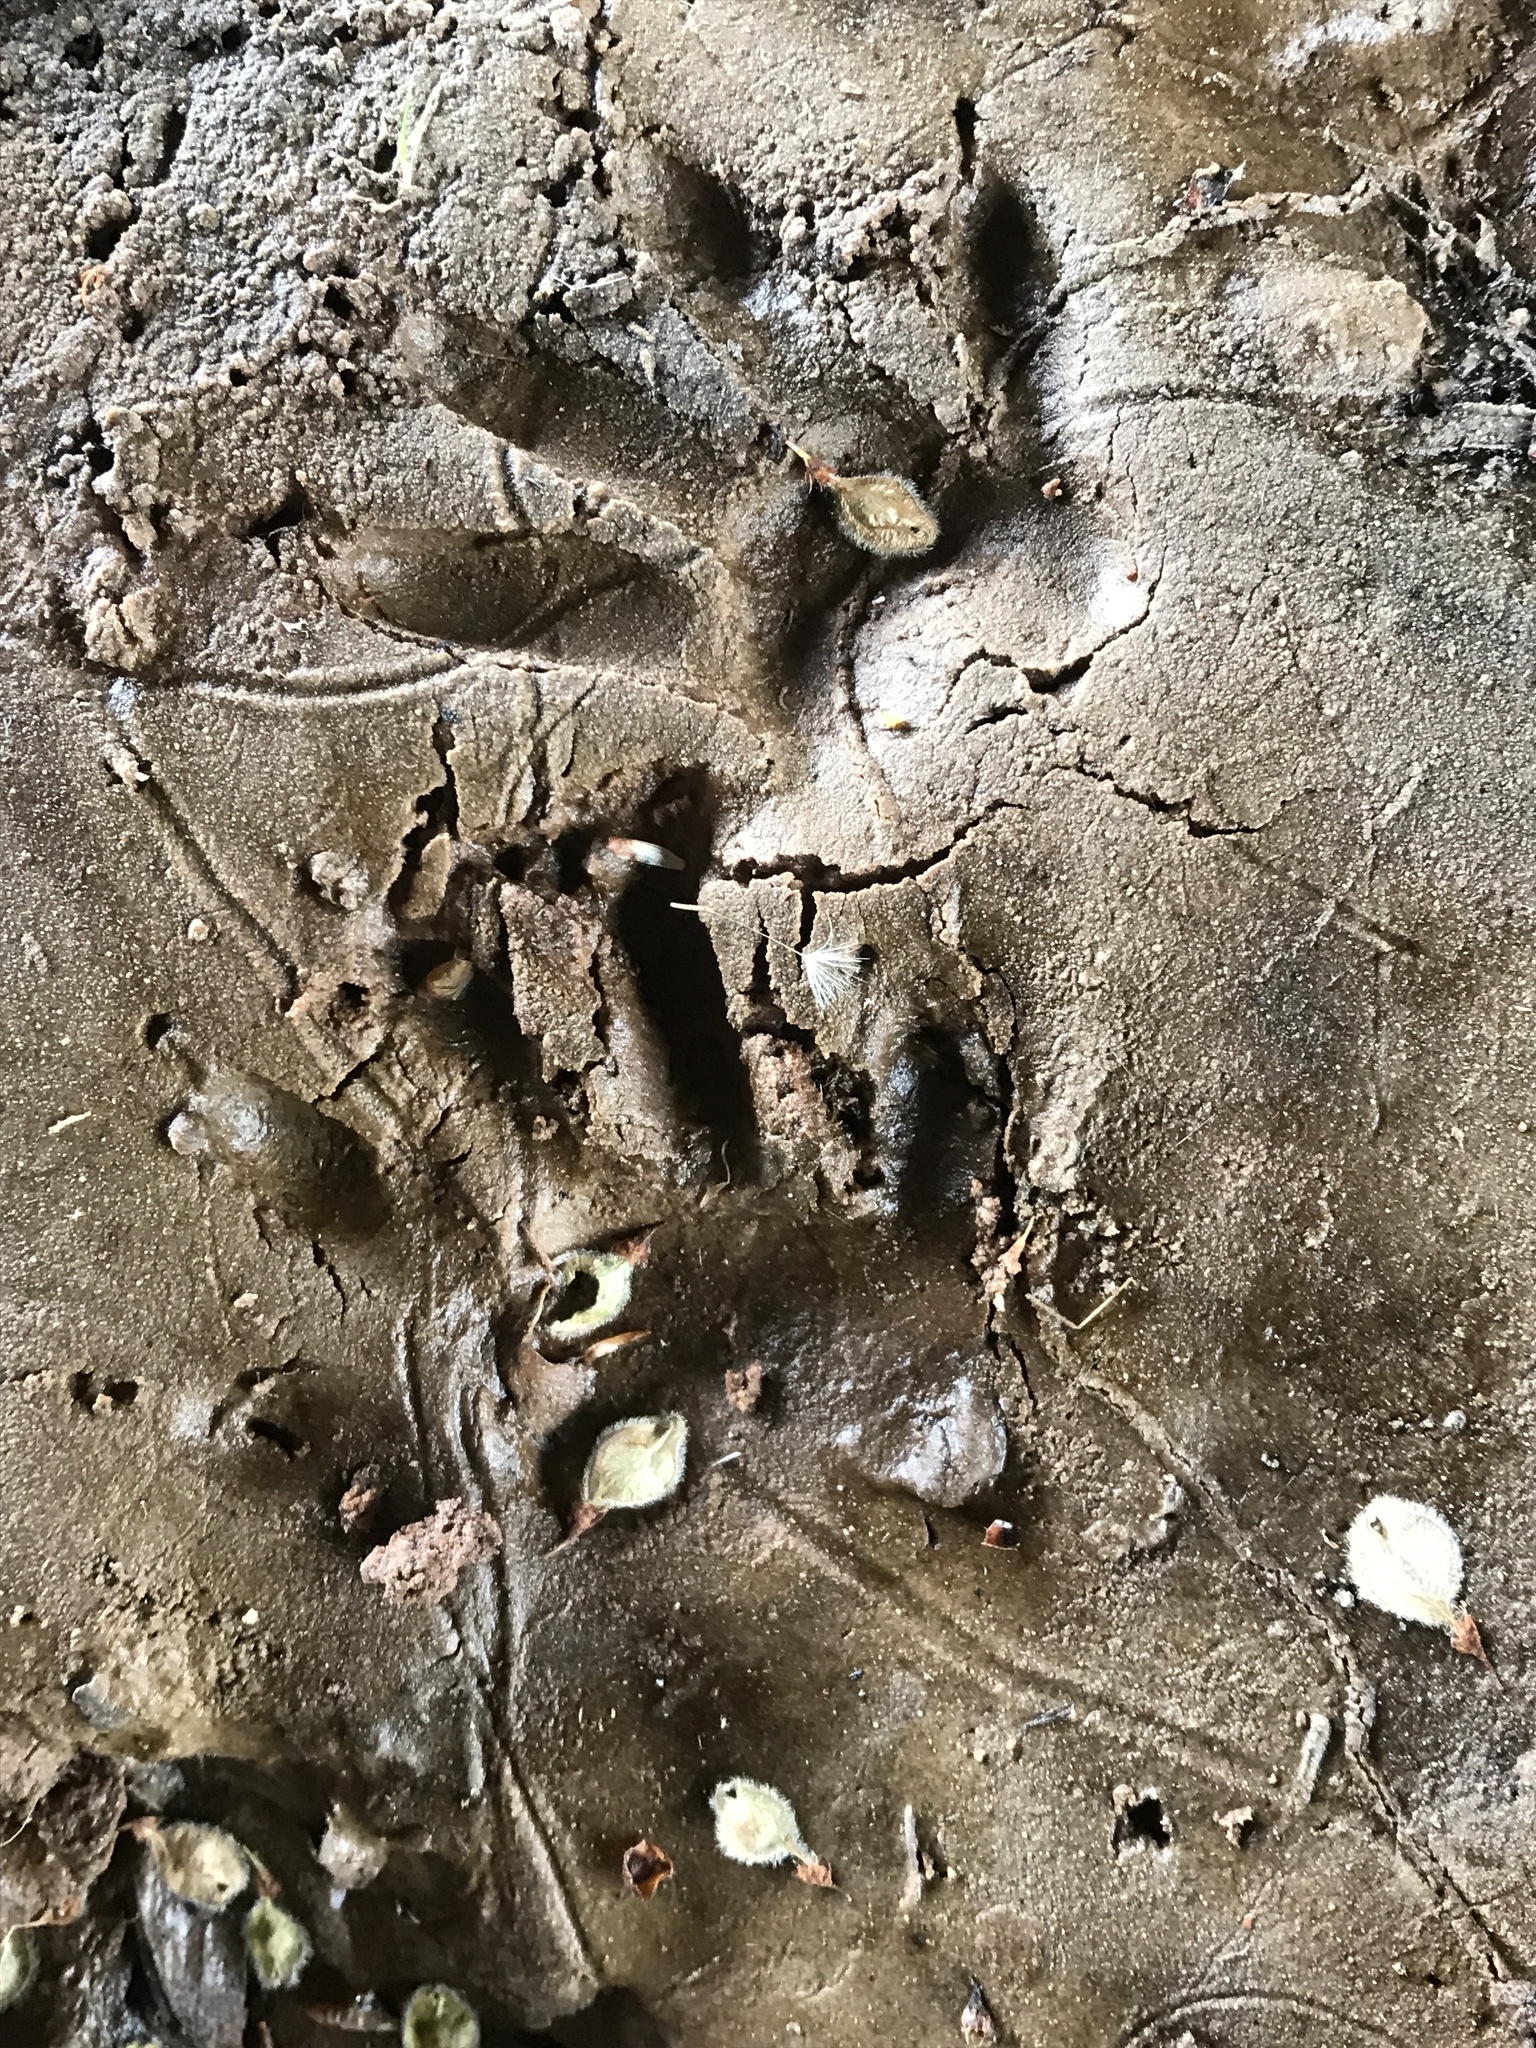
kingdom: Animalia
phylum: Chordata
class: Mammalia
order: Carnivora
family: Procyonidae
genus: Procyon
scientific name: Procyon lotor
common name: Raccoon
